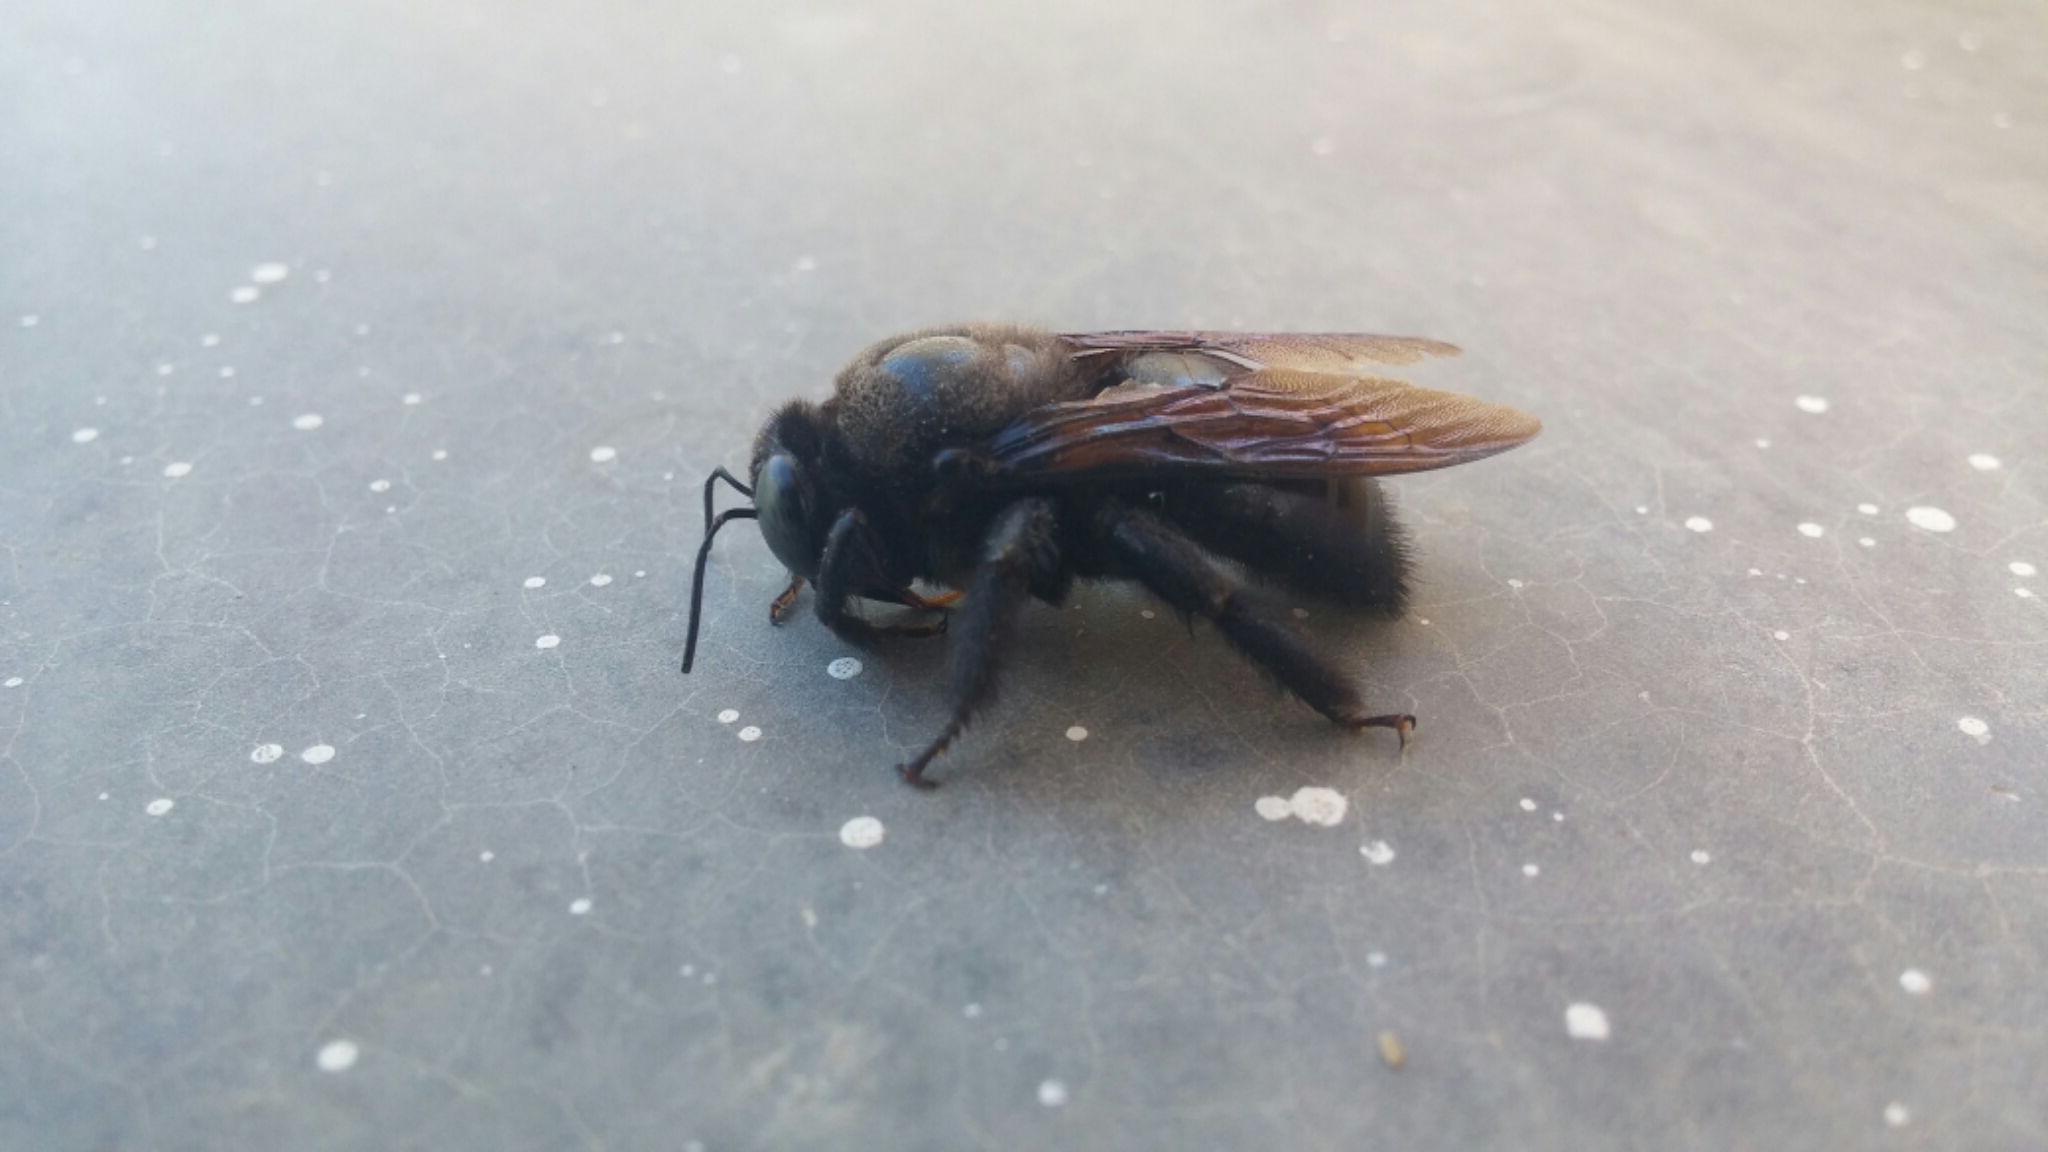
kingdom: Animalia
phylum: Arthropoda
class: Insecta
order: Hymenoptera
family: Apidae
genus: Xylocopa
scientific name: Xylocopa californica
